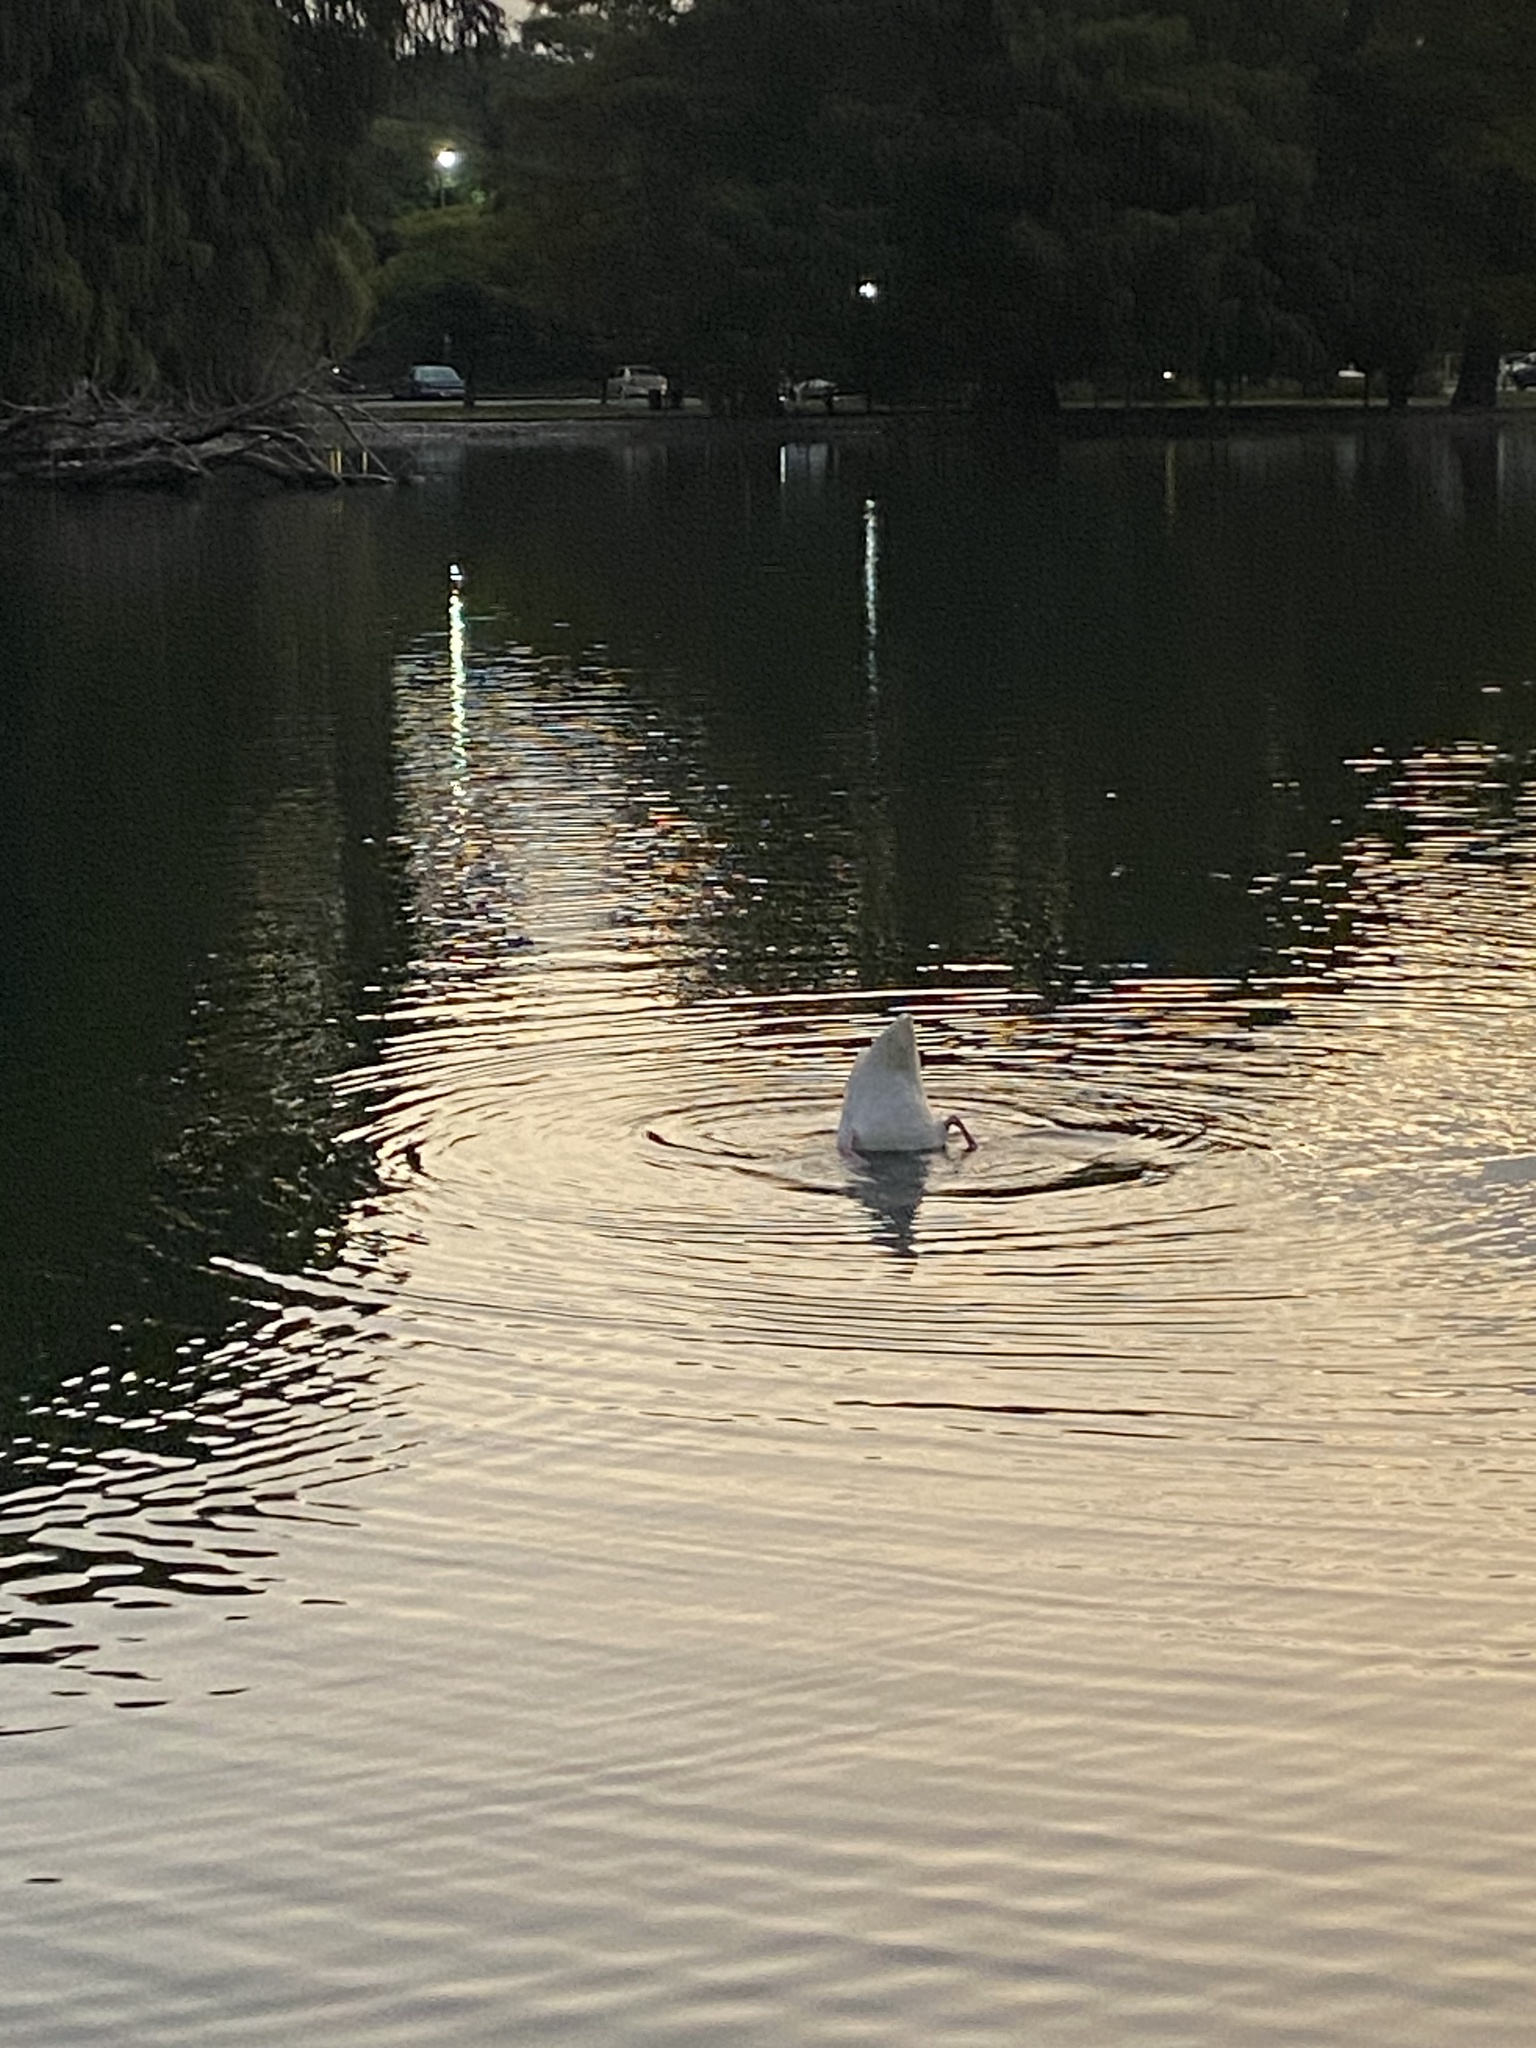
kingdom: Animalia
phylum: Chordata
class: Aves
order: Anseriformes
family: Anatidae
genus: Cygnus
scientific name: Cygnus melancoryphus
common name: Black-necked swan
